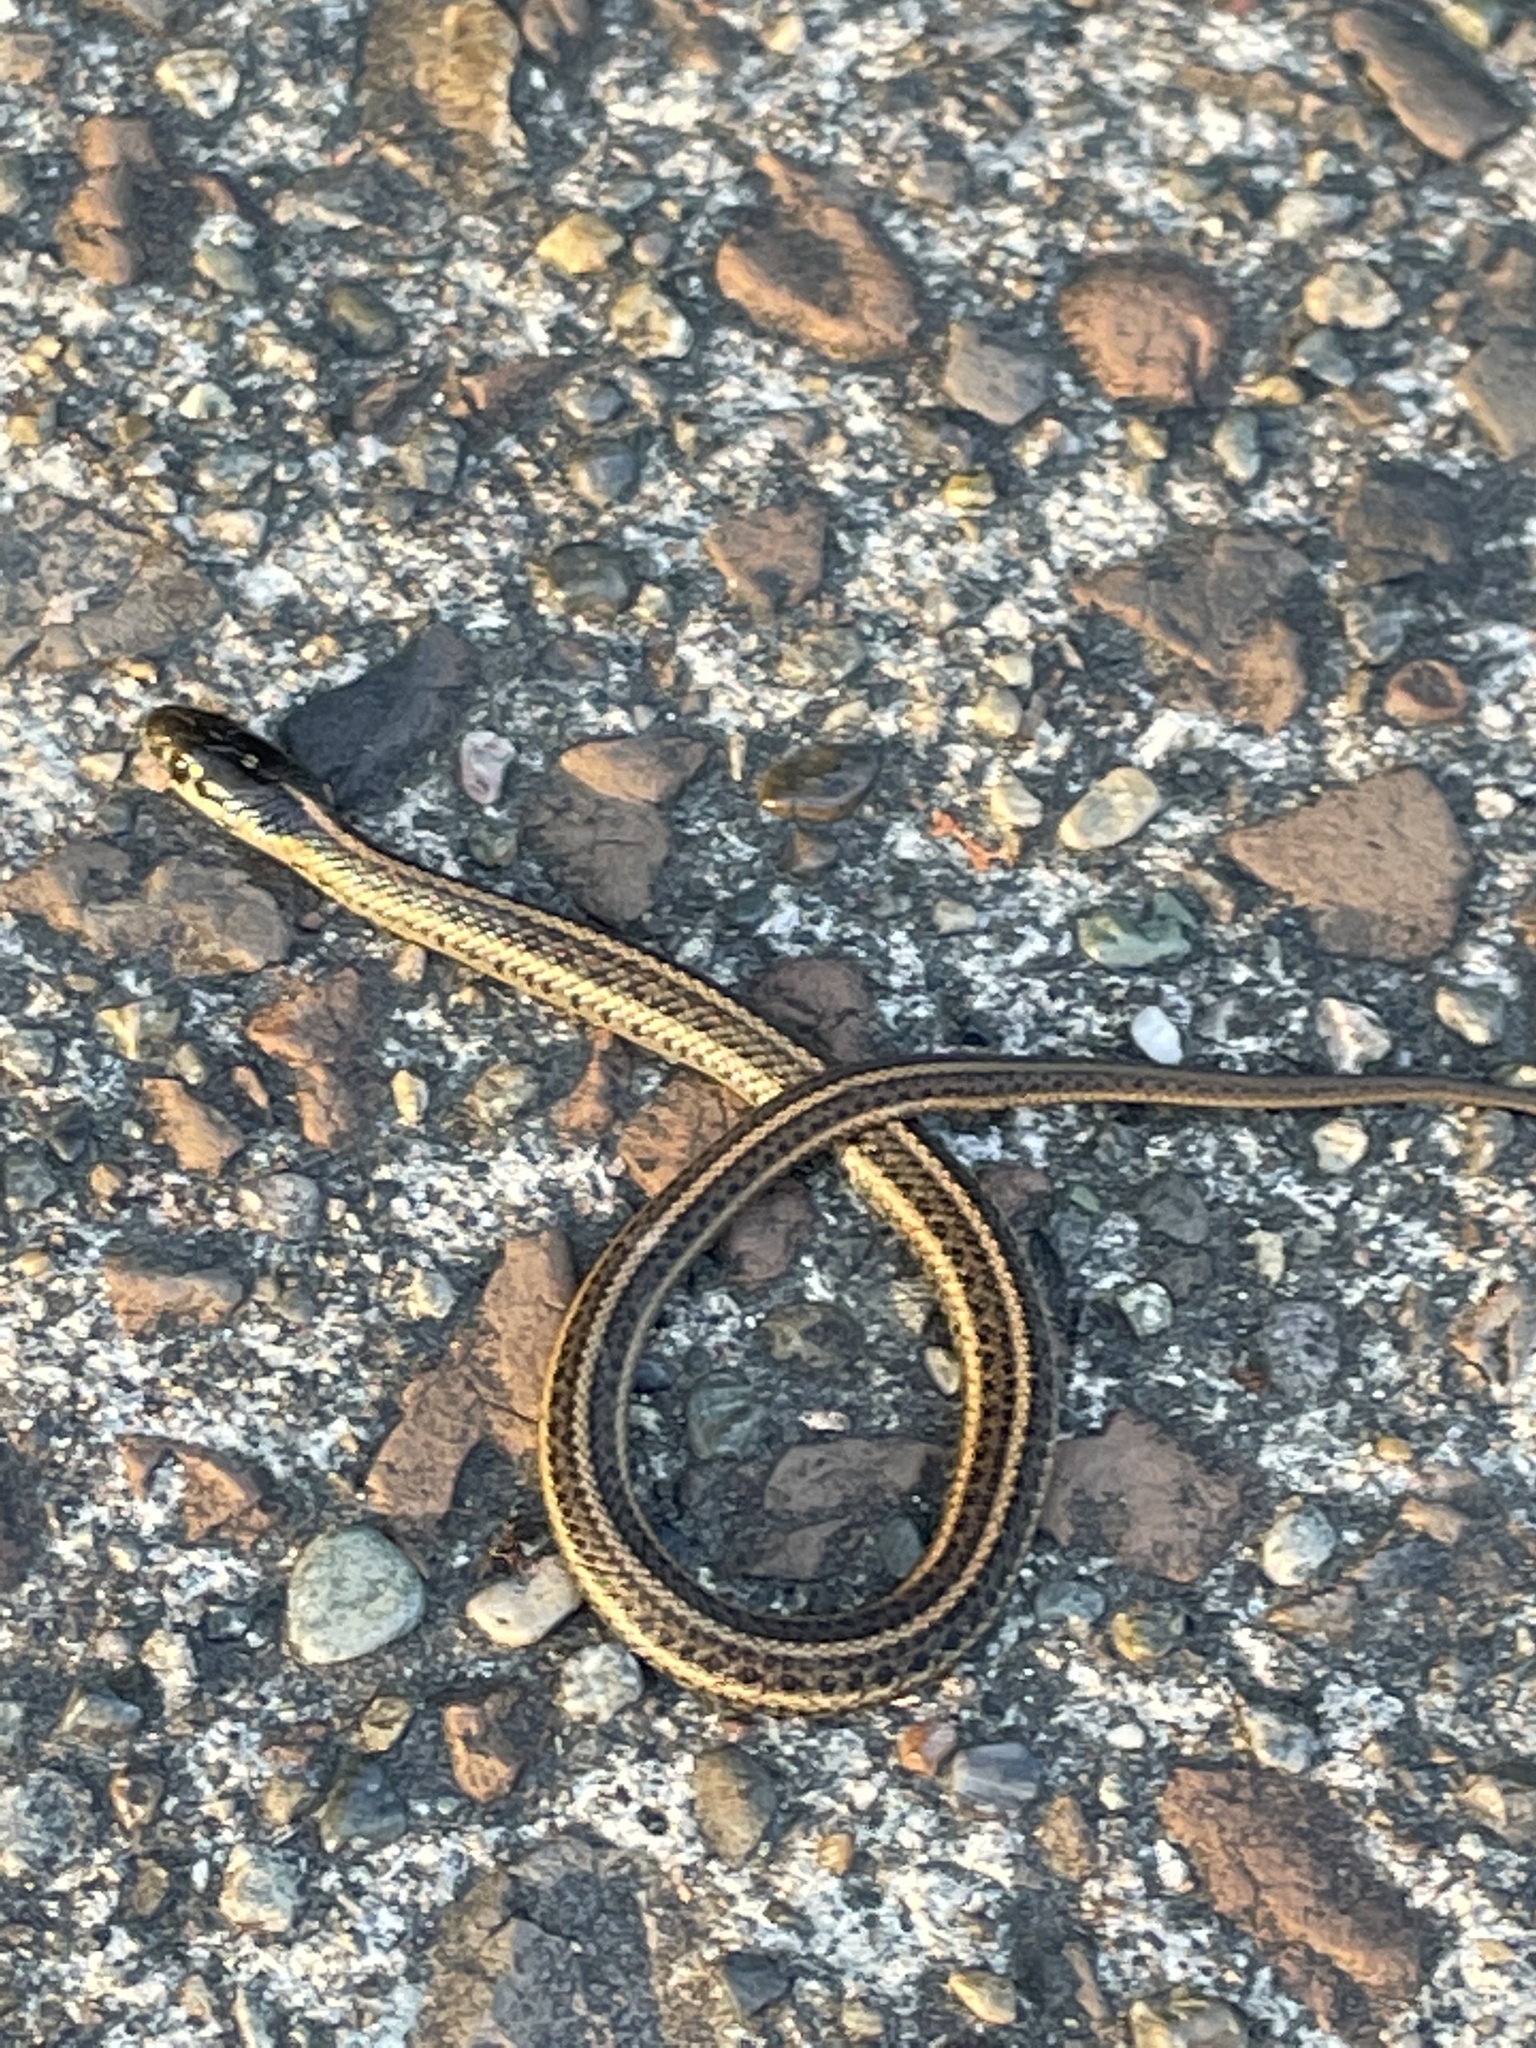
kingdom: Animalia
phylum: Chordata
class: Squamata
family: Colubridae
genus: Thamnophis
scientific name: Thamnophis ordinoides
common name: Northwestern garter snake
